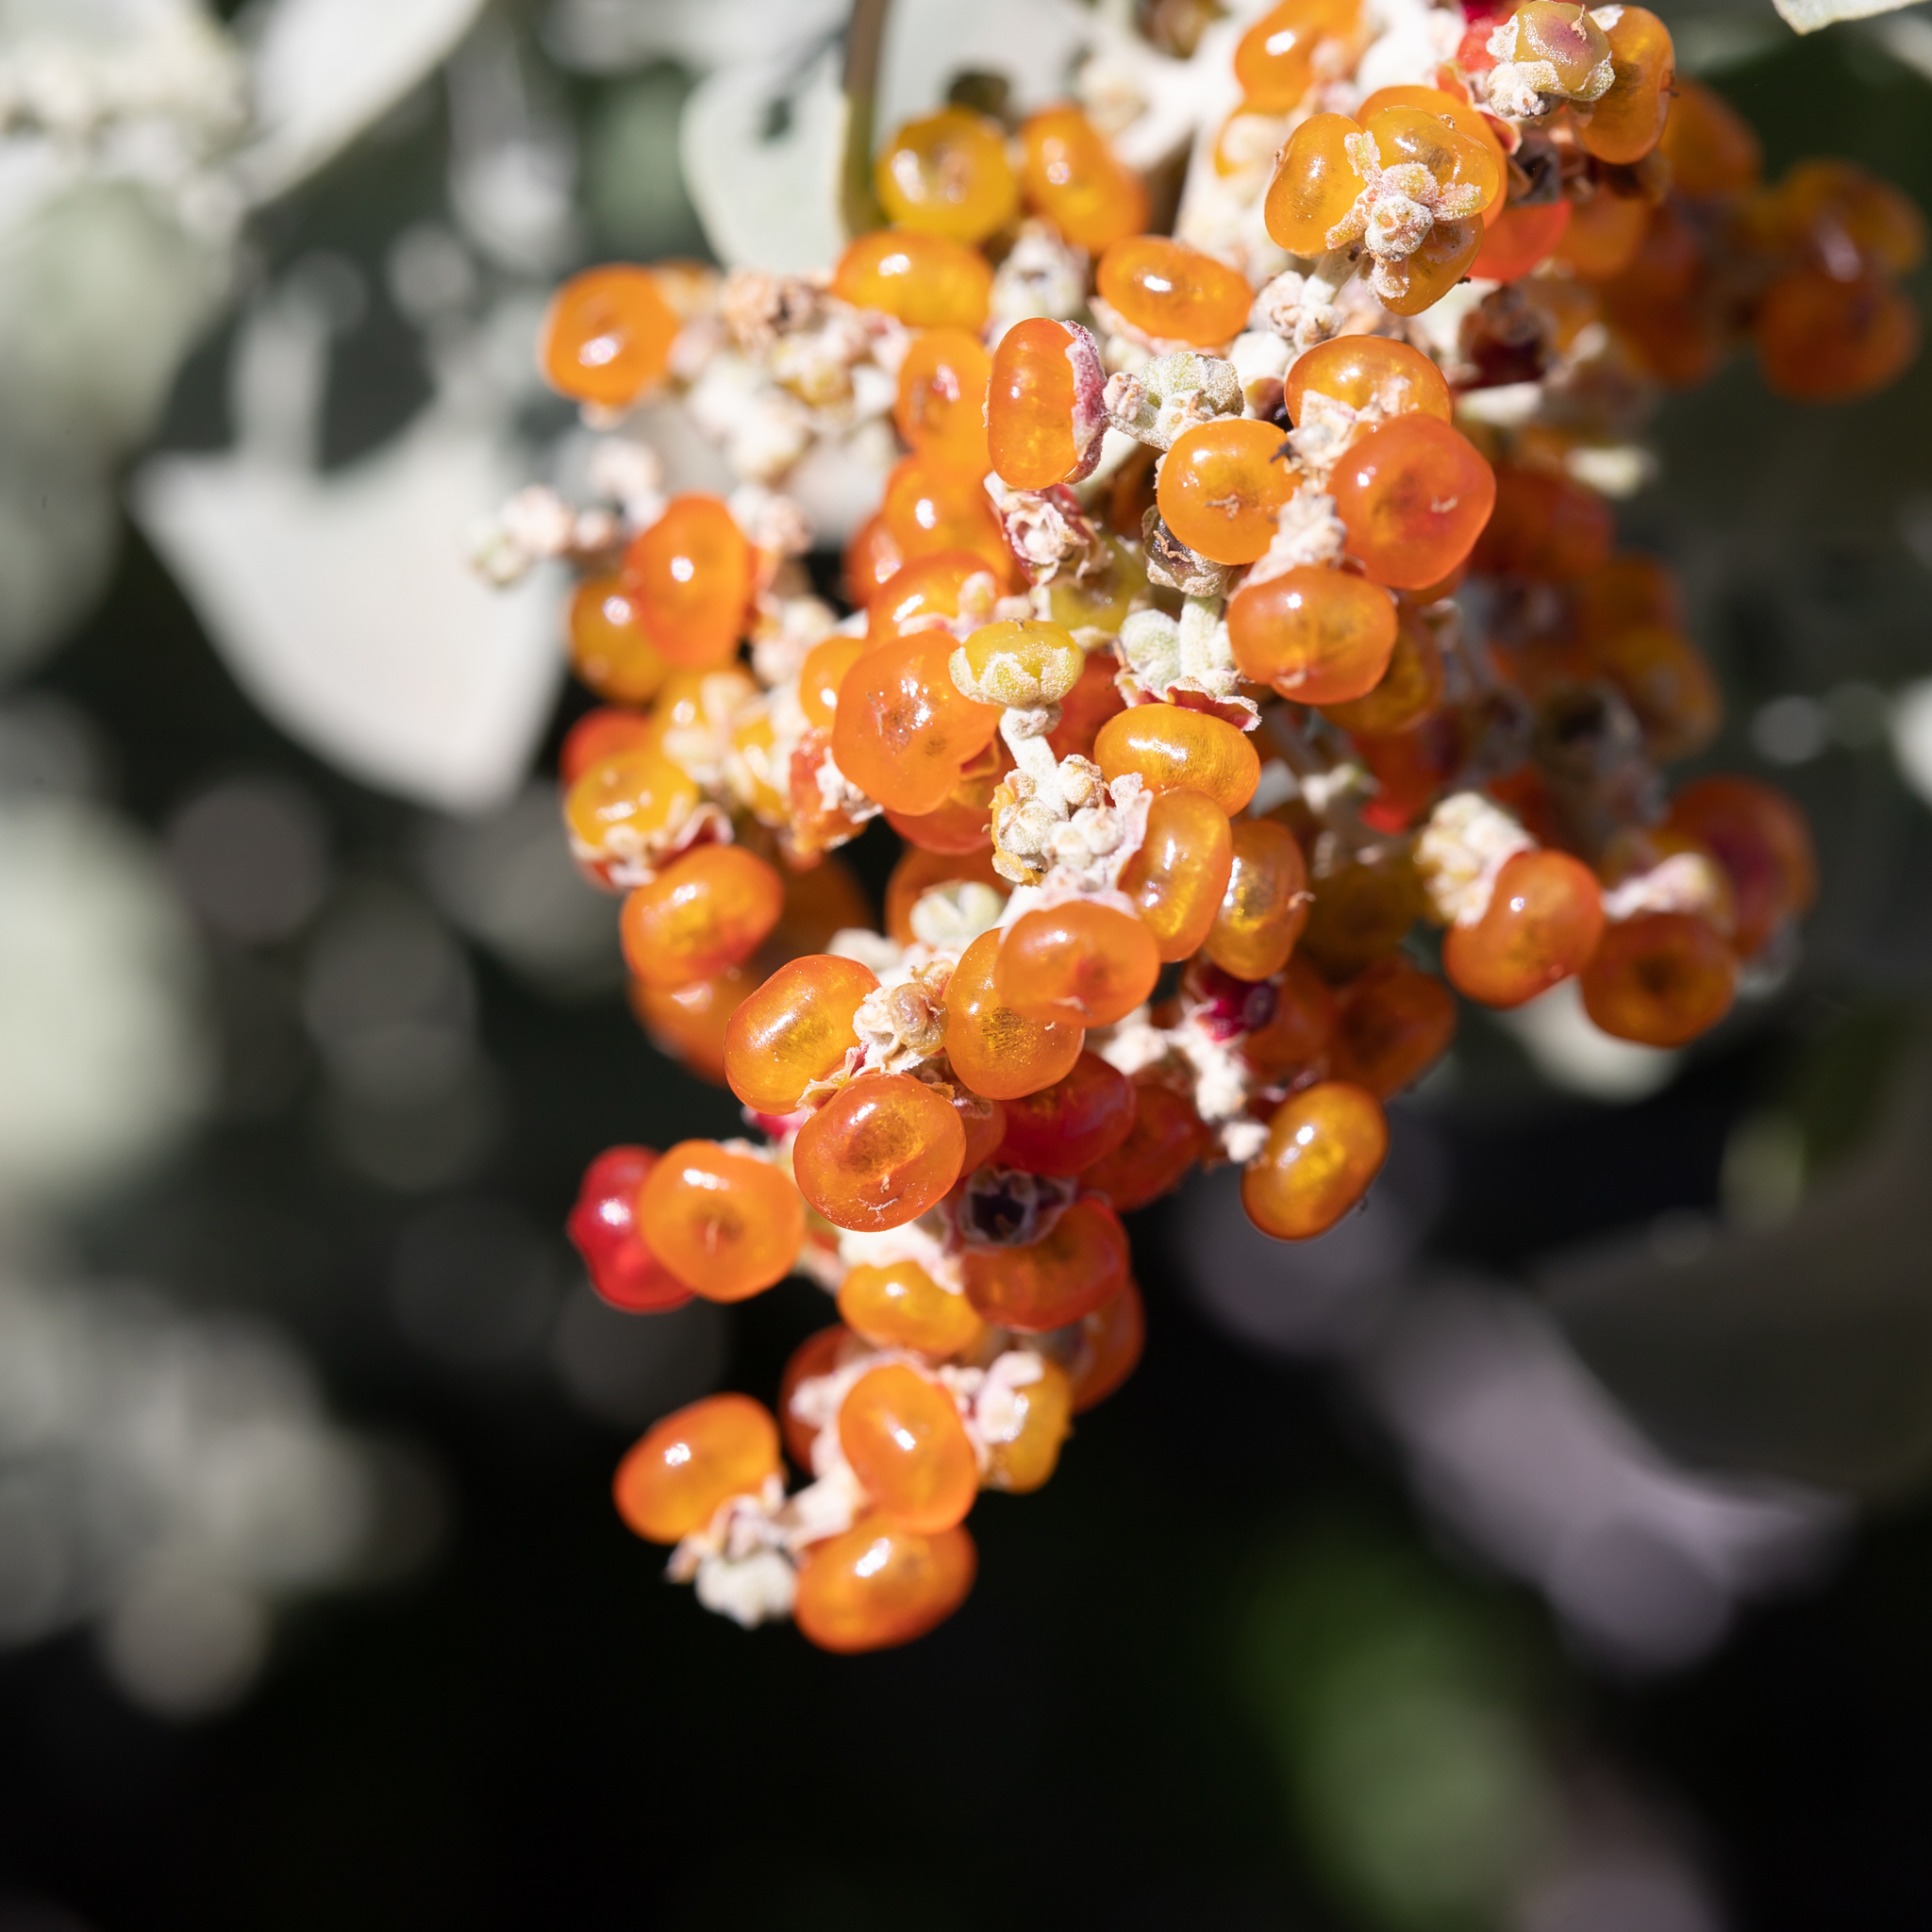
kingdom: Plantae
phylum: Tracheophyta
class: Magnoliopsida
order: Caryophyllales
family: Amaranthaceae
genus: Chenopodium
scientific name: Chenopodium parabolicum
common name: Old-man-saltbush
